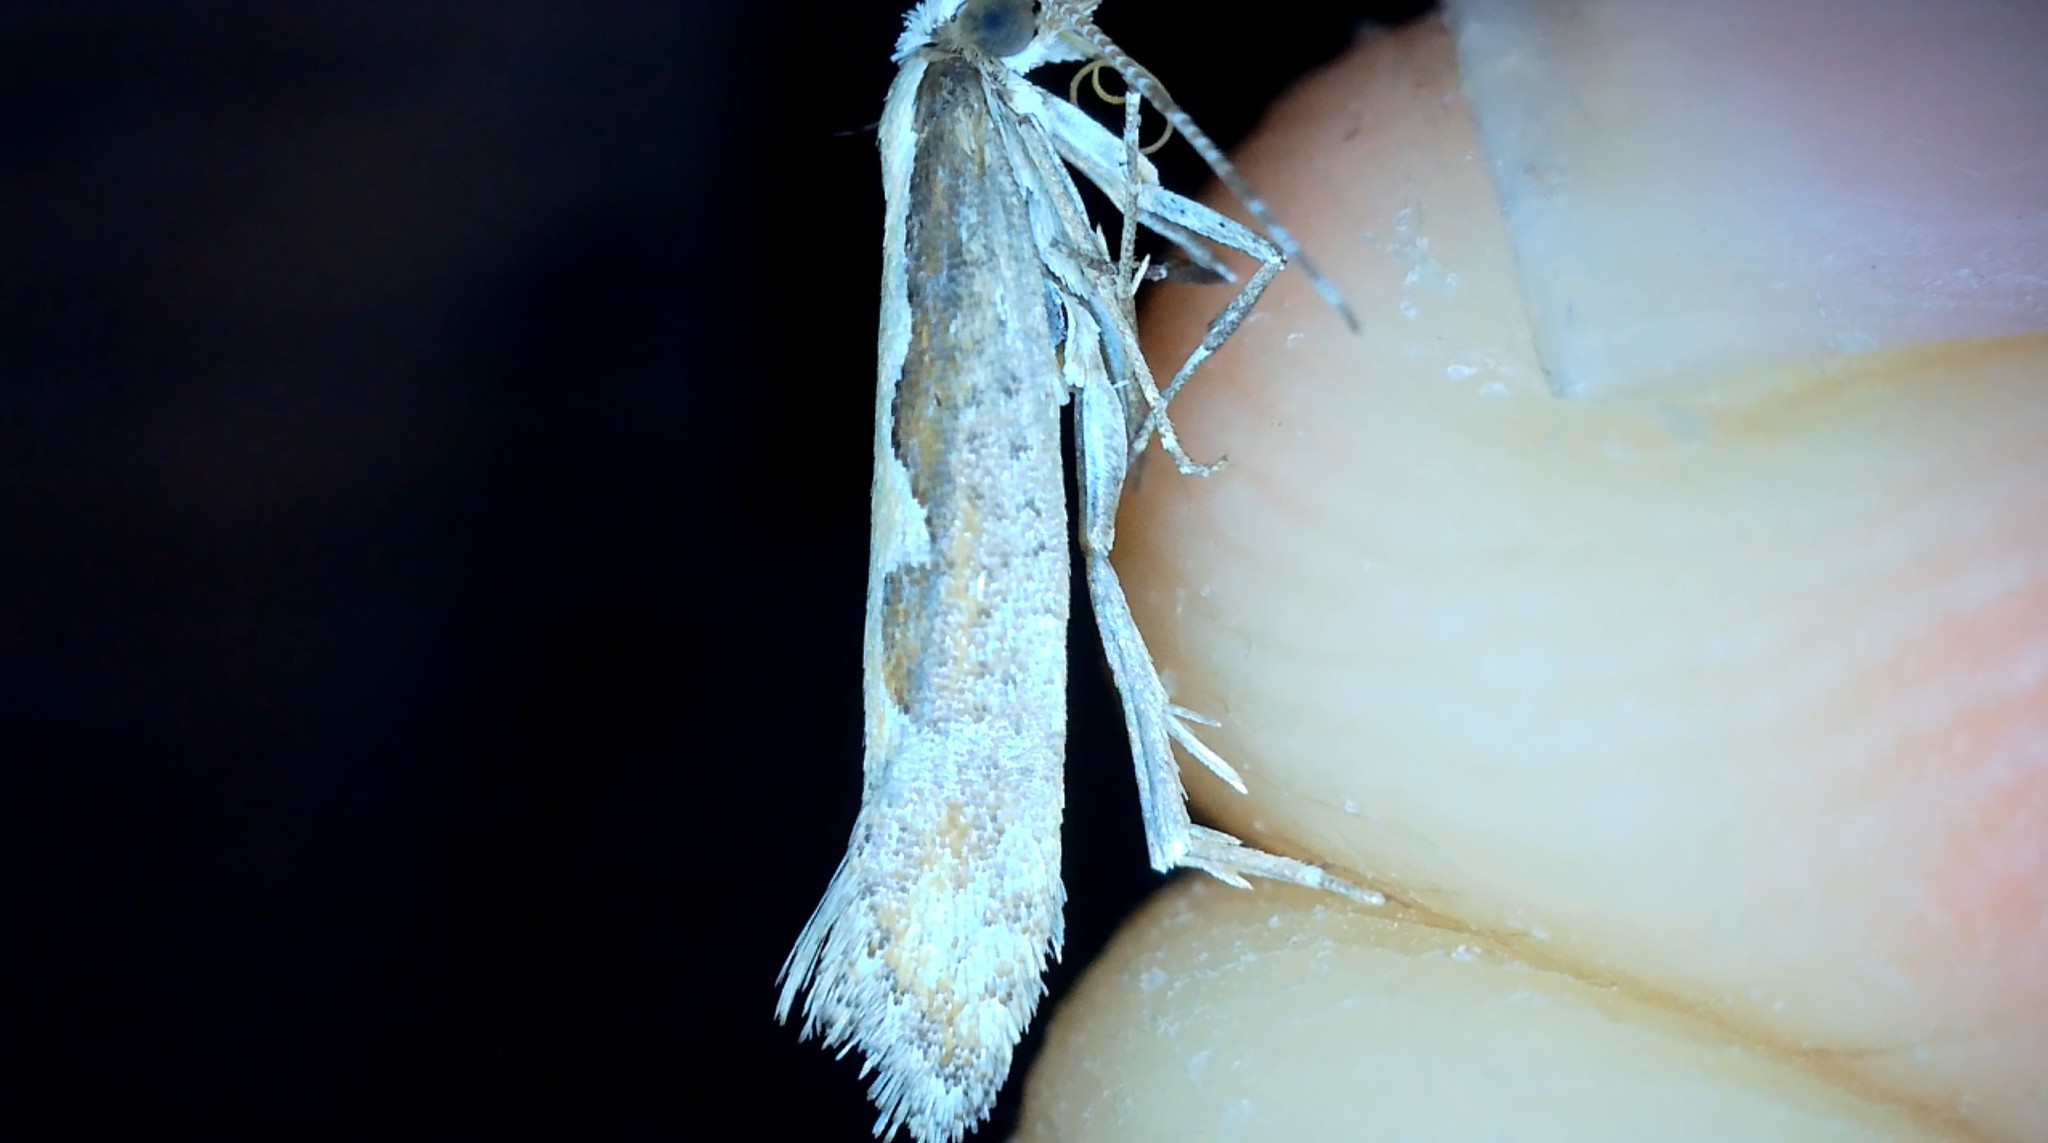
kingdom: Animalia
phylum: Arthropoda
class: Insecta
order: Lepidoptera
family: Plutellidae
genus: Plutella
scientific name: Plutella xylostella
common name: Diamond-back moth
